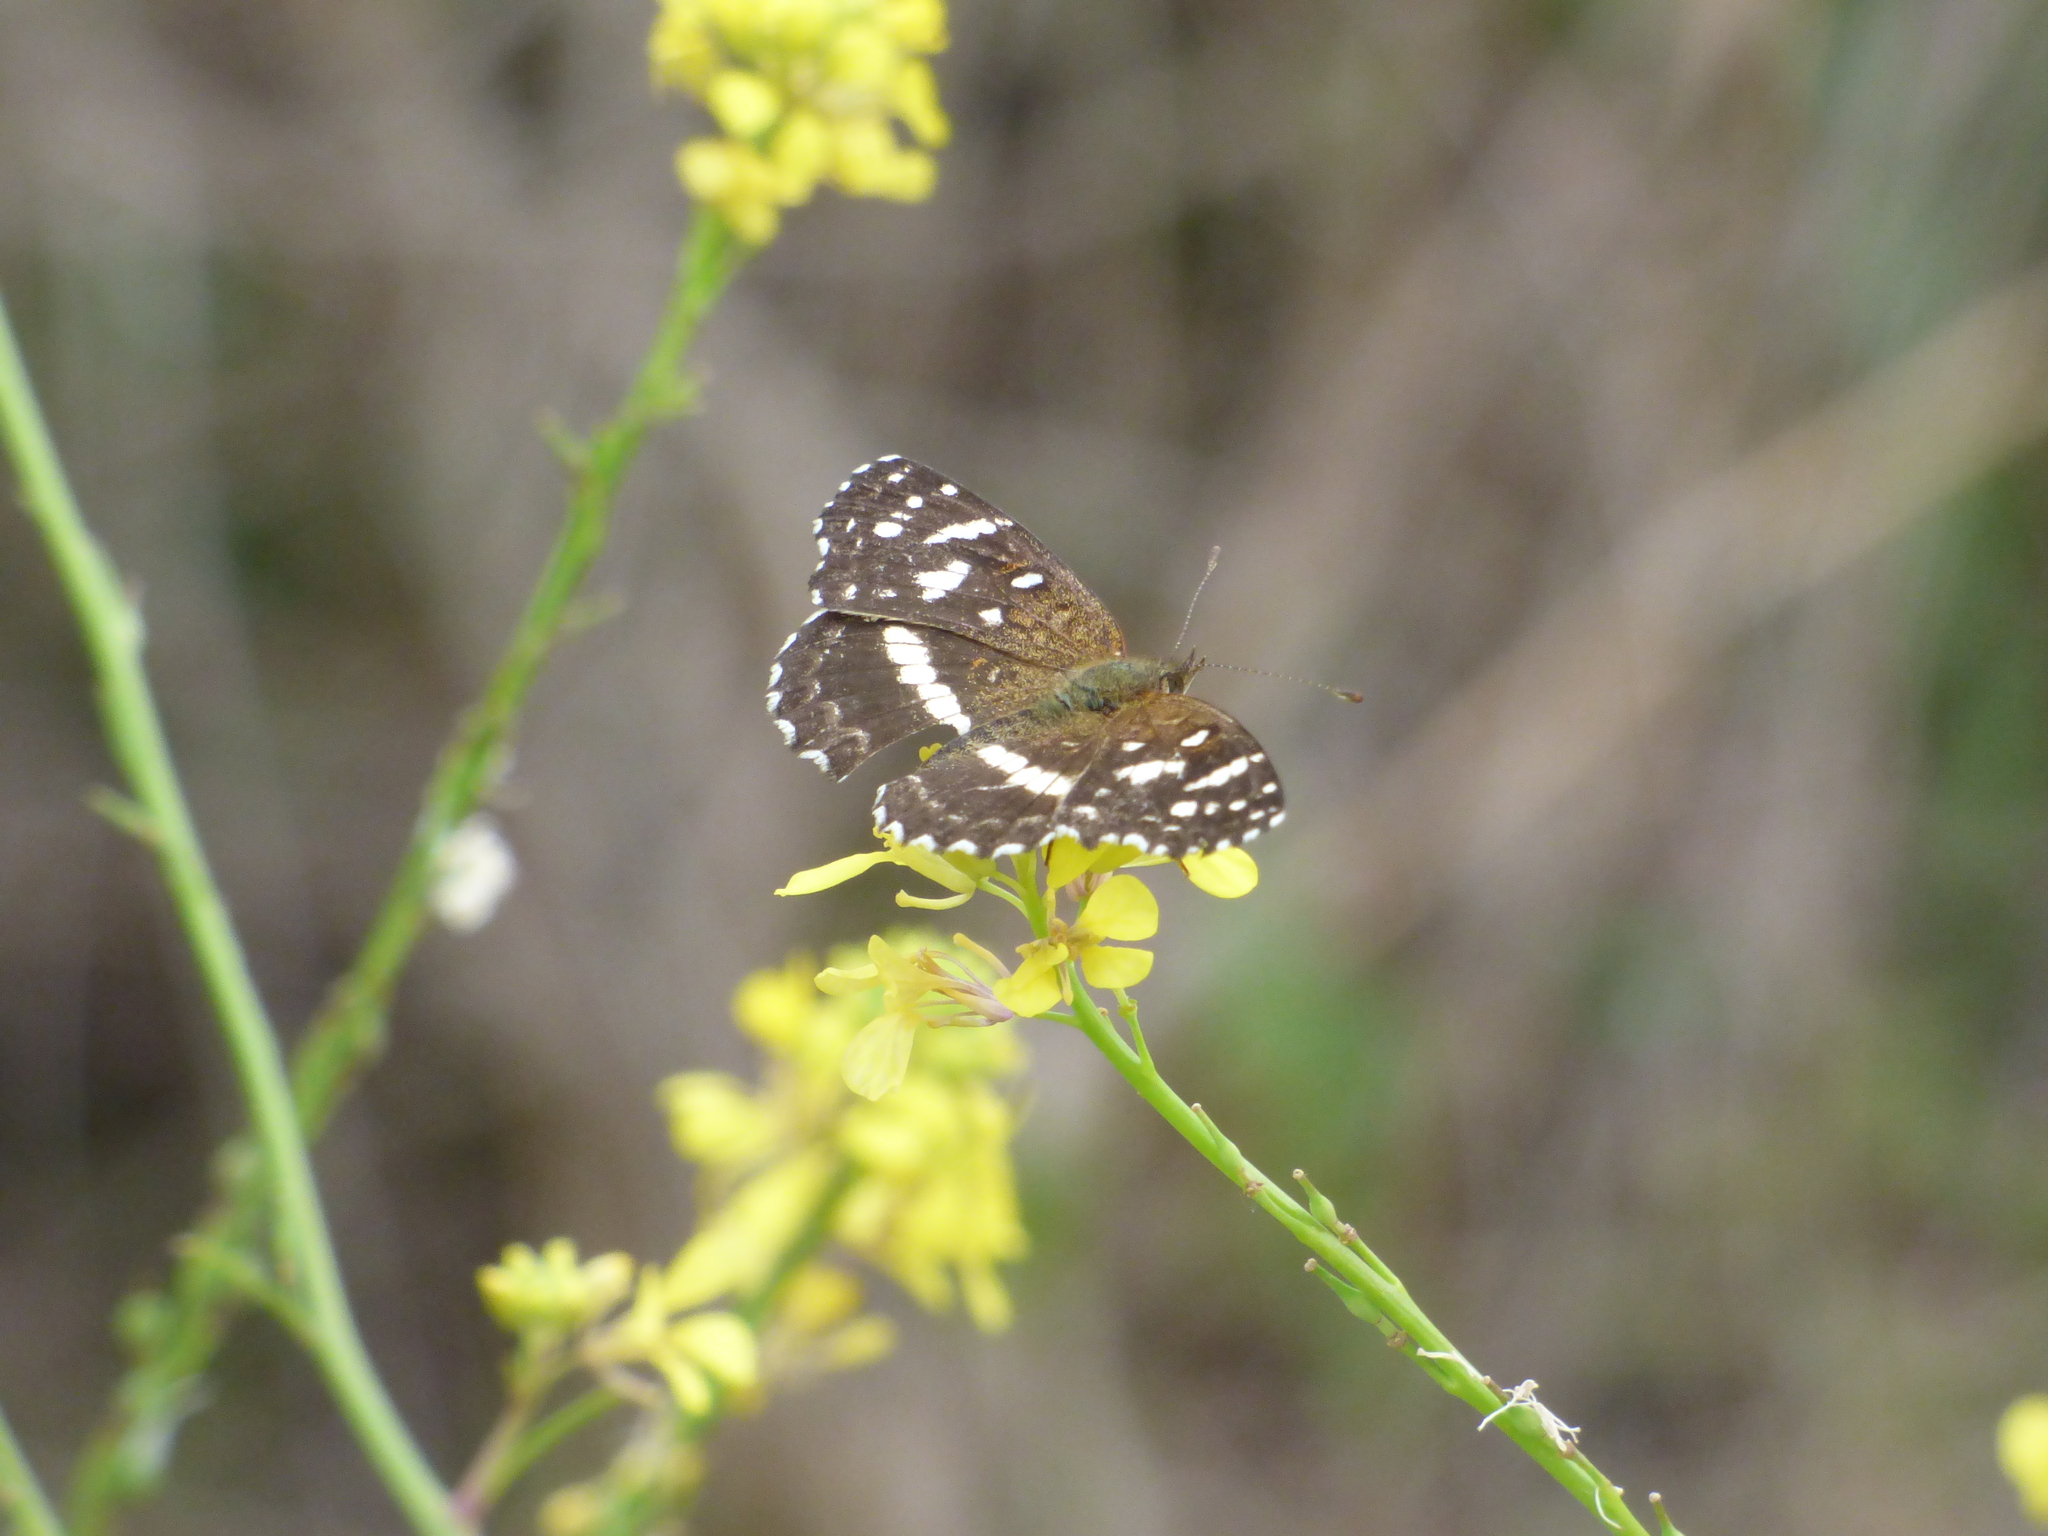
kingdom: Animalia
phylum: Arthropoda
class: Insecta
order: Lepidoptera
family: Nymphalidae
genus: Ortilia
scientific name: Ortilia ithra
